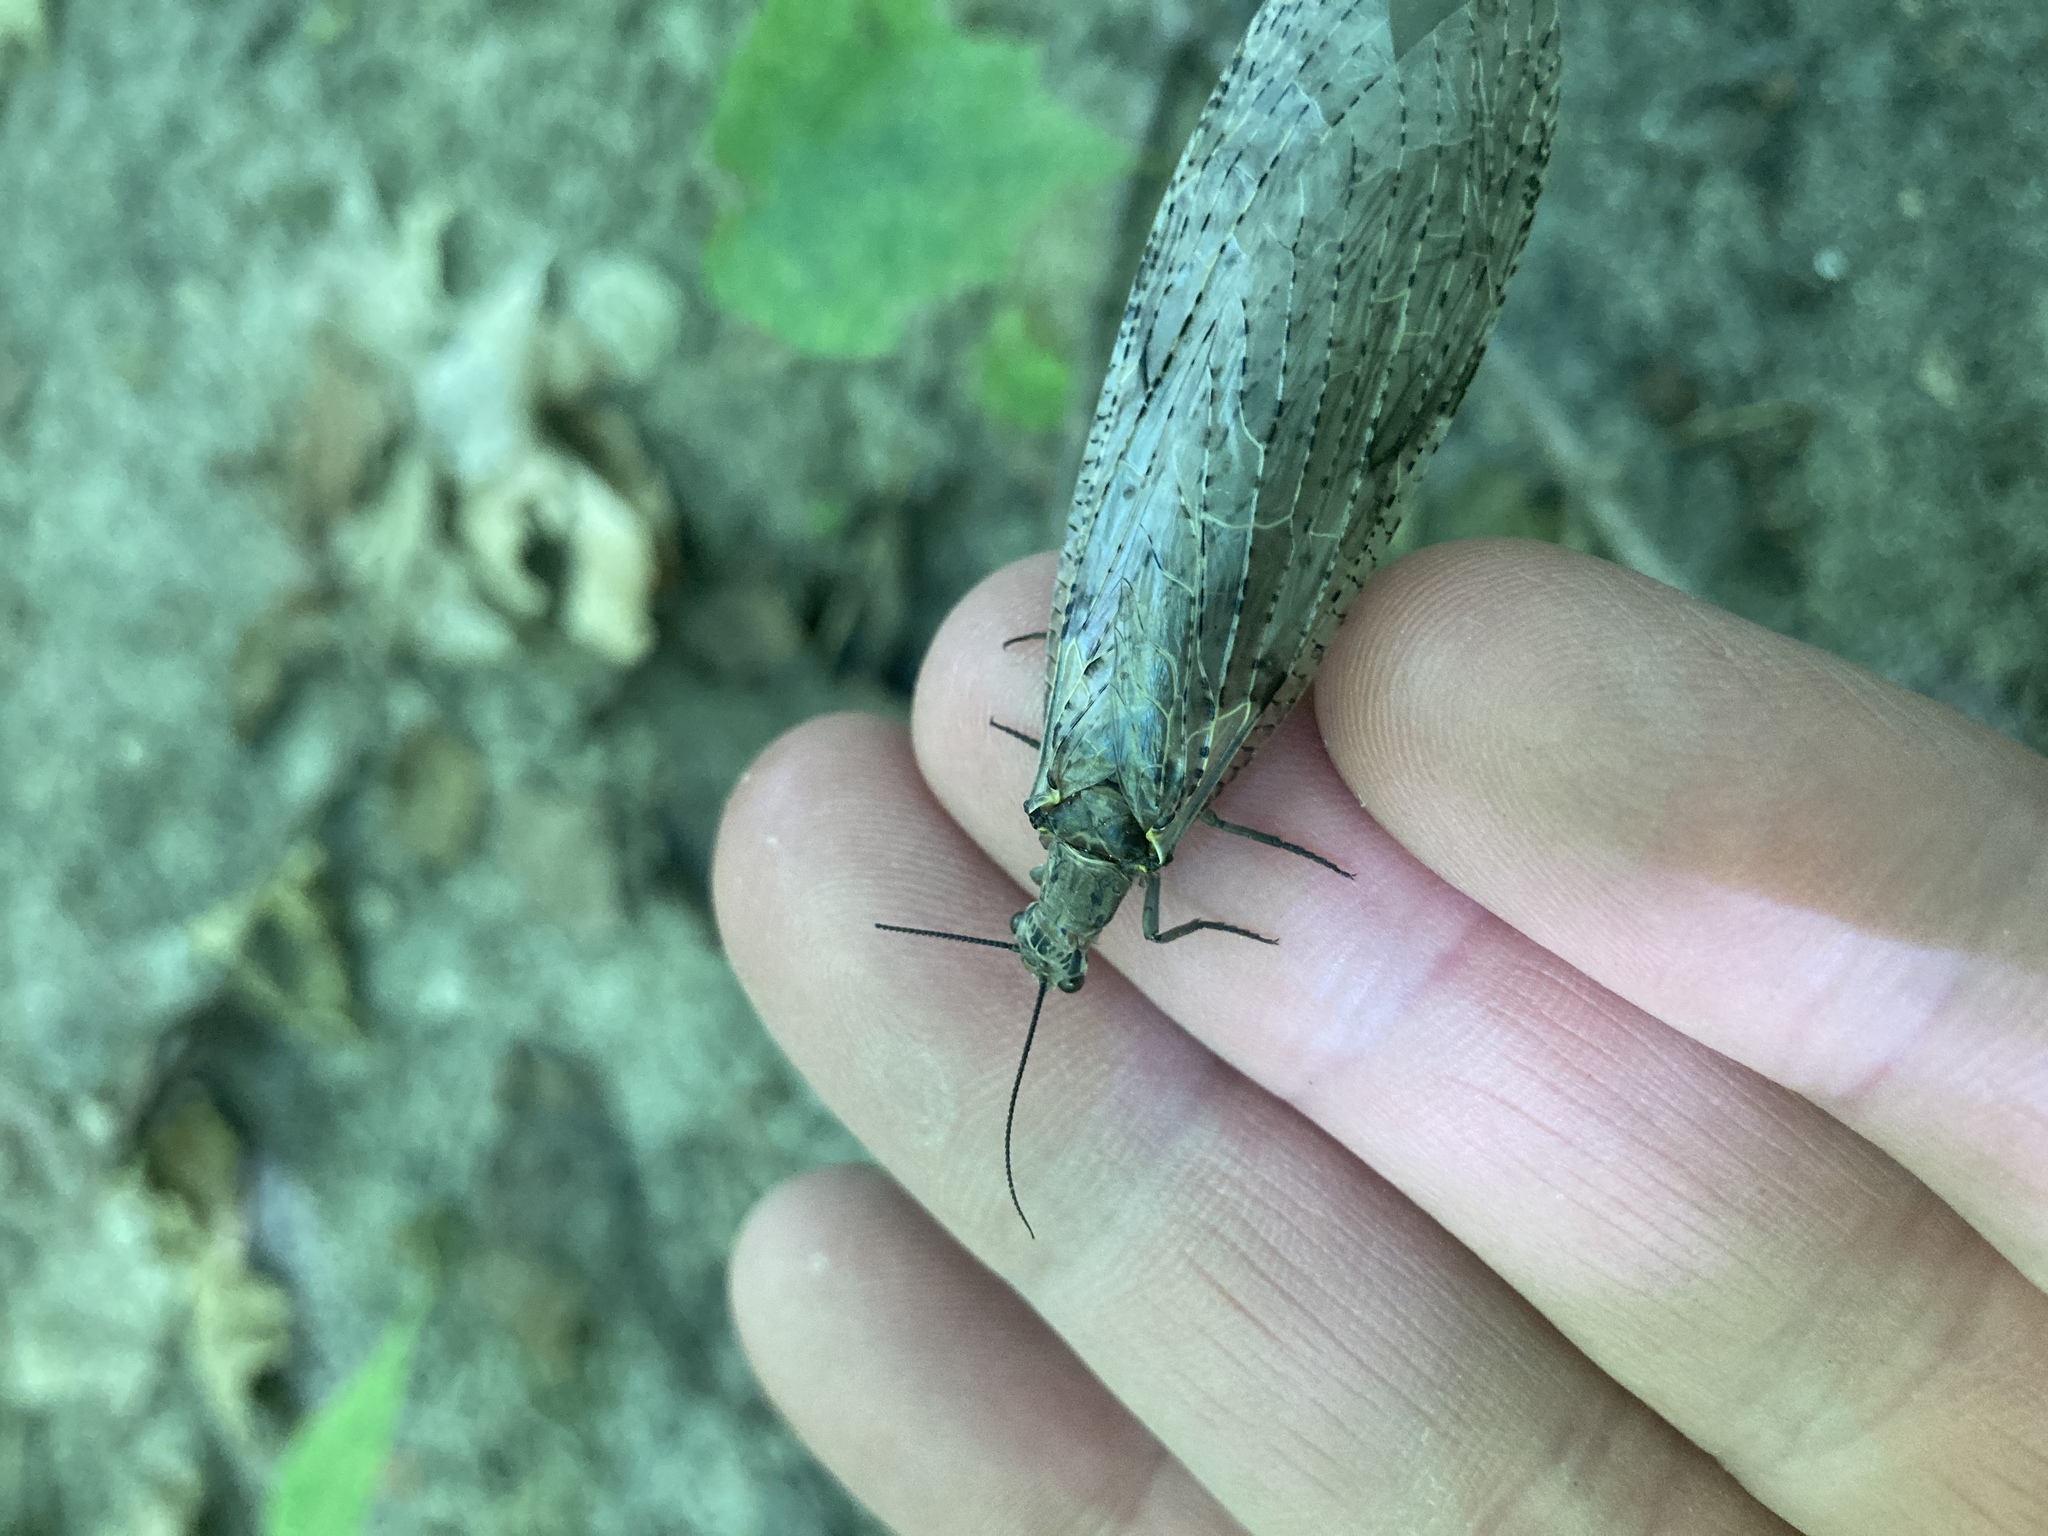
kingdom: Animalia
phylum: Arthropoda
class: Insecta
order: Megaloptera
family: Corydalidae
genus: Chauliodes
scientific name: Chauliodes rastricornis
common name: Spring fishfly
